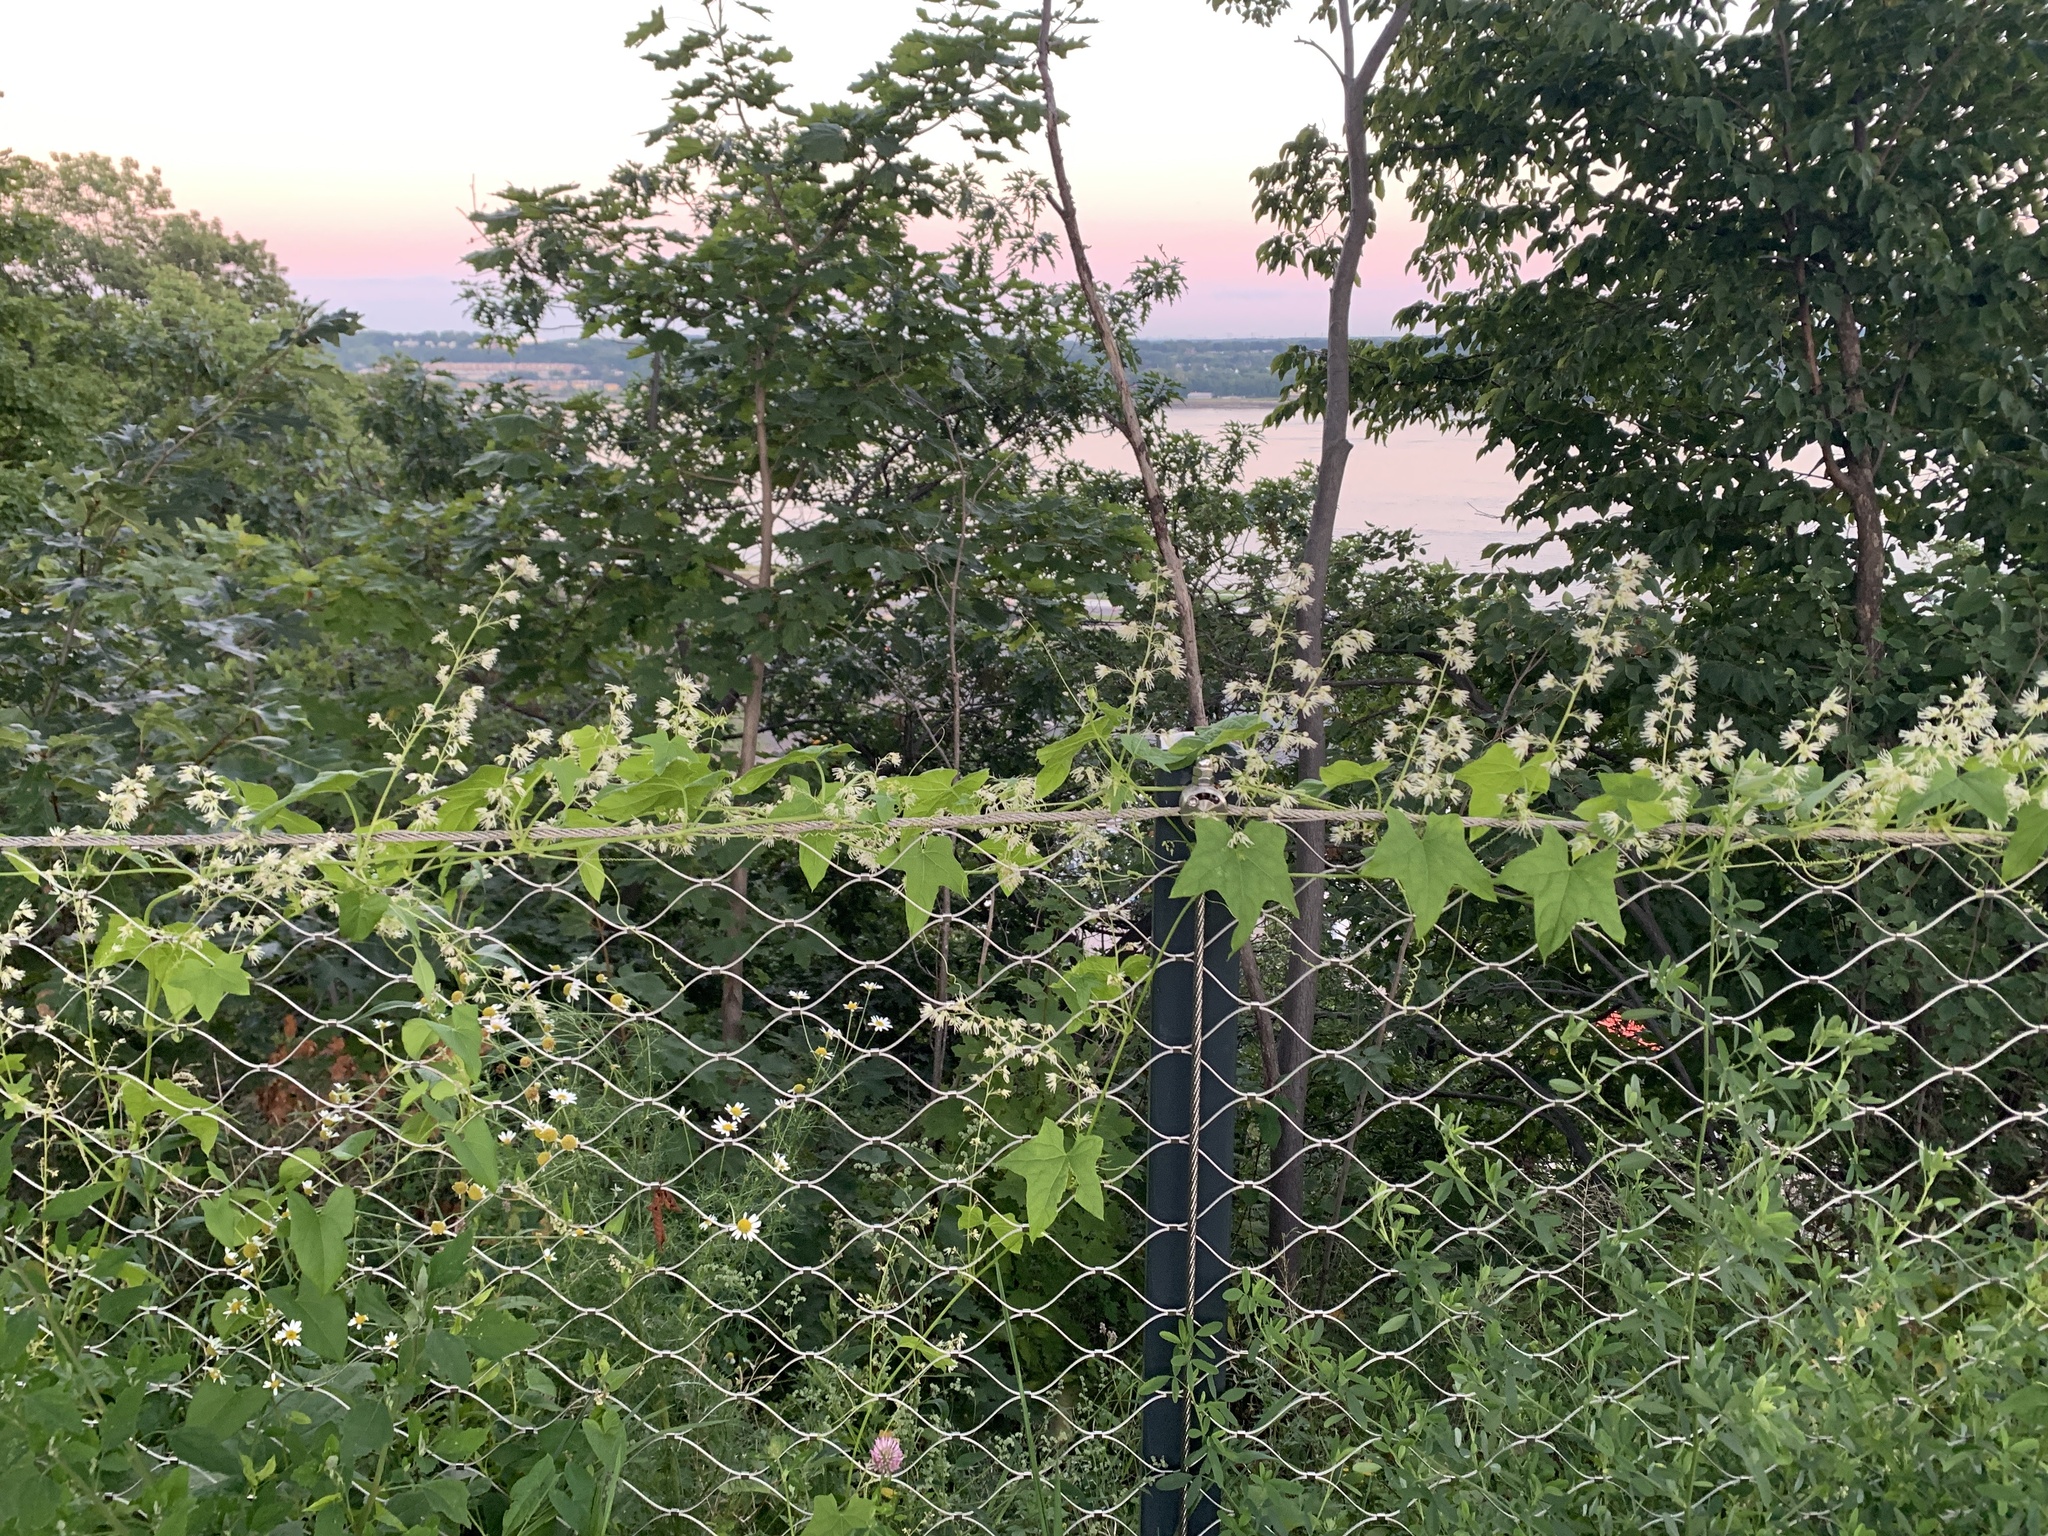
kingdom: Plantae
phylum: Tracheophyta
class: Magnoliopsida
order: Cucurbitales
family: Cucurbitaceae
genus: Echinocystis
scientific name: Echinocystis lobata
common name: Wild cucumber
